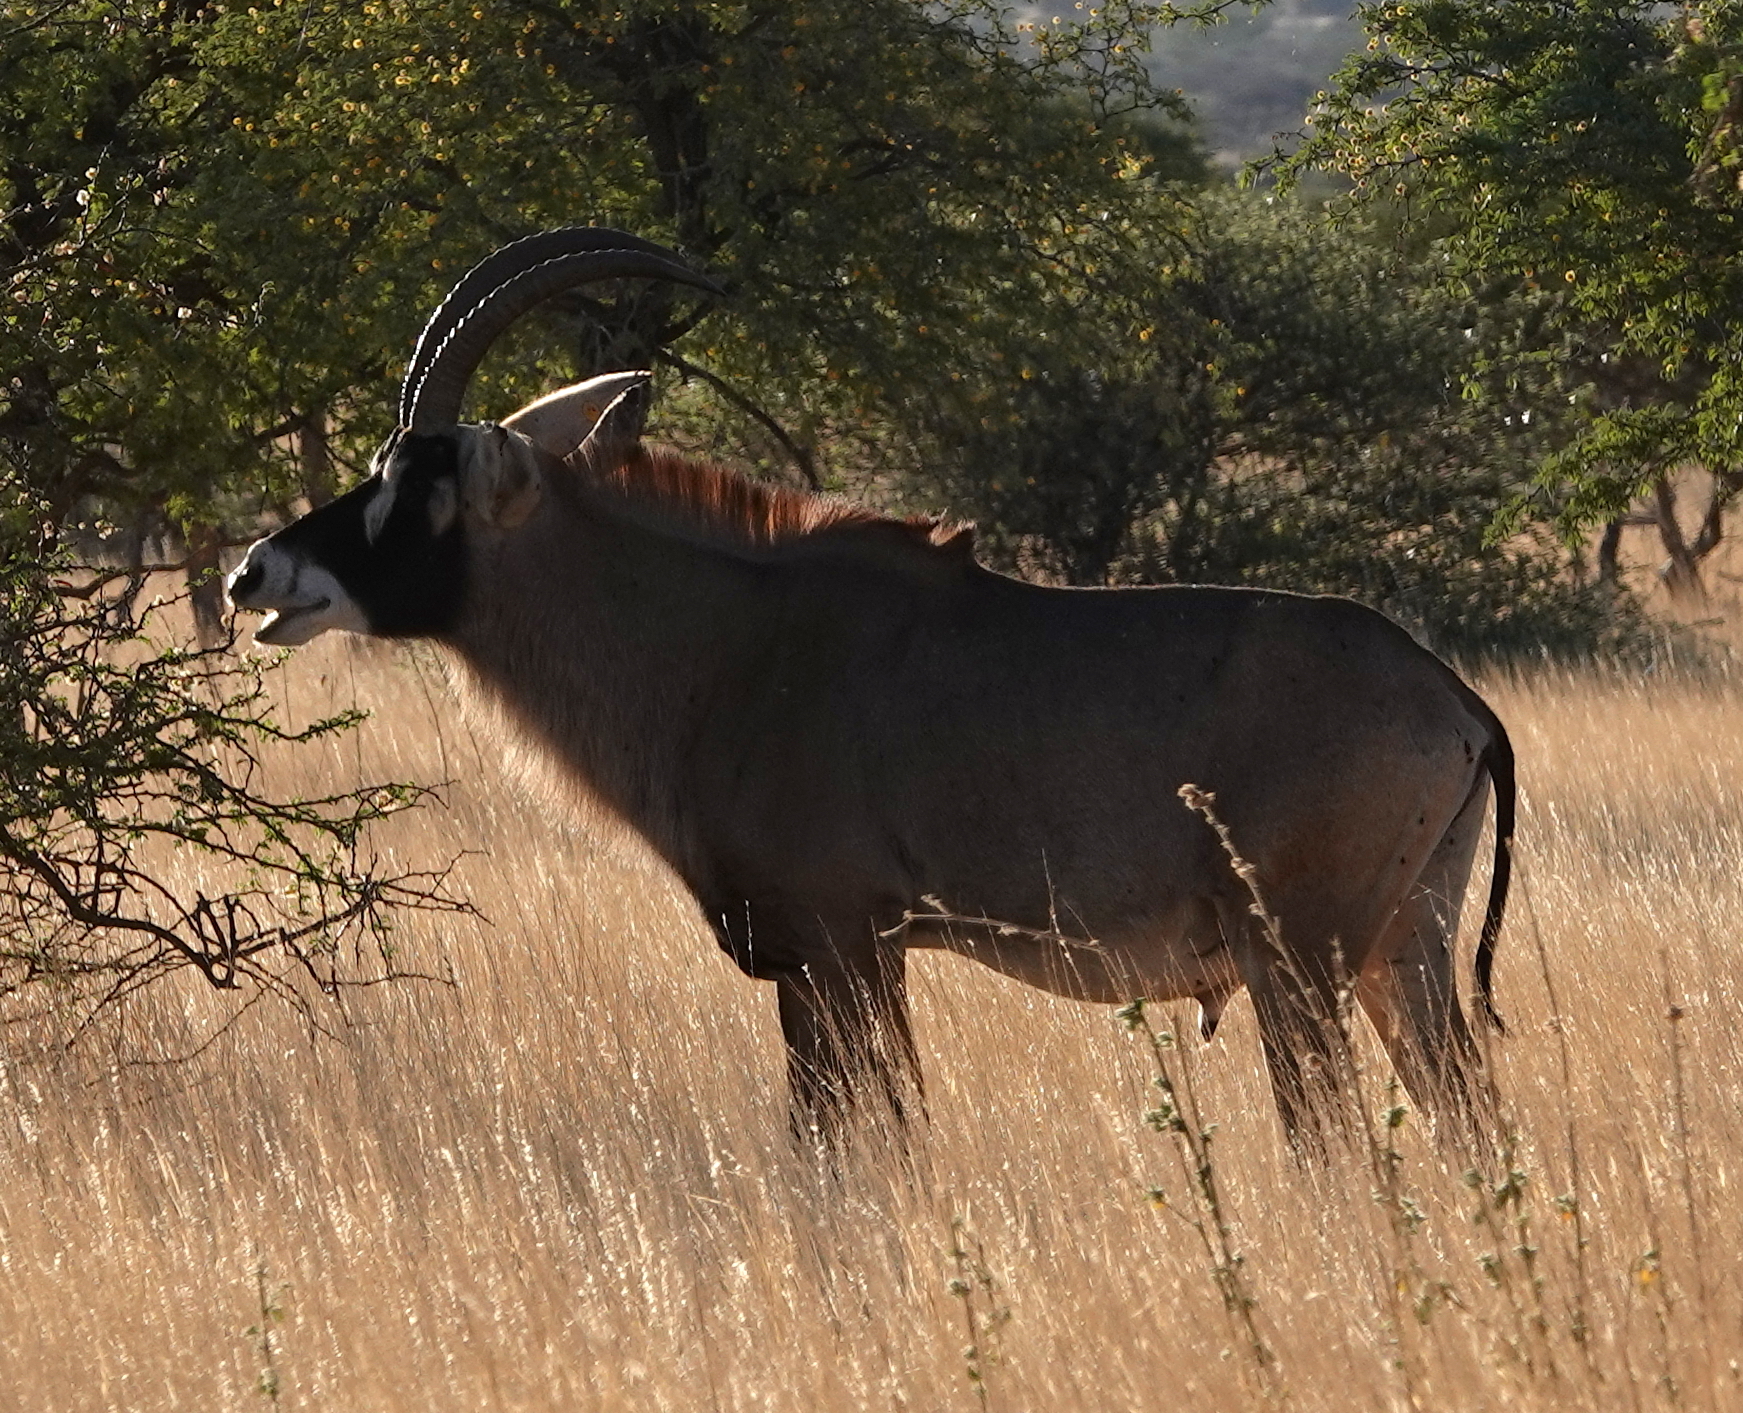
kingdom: Animalia
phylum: Chordata
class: Mammalia
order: Artiodactyla
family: Bovidae
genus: Hippotragus
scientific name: Hippotragus equinus
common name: Roan antelope
